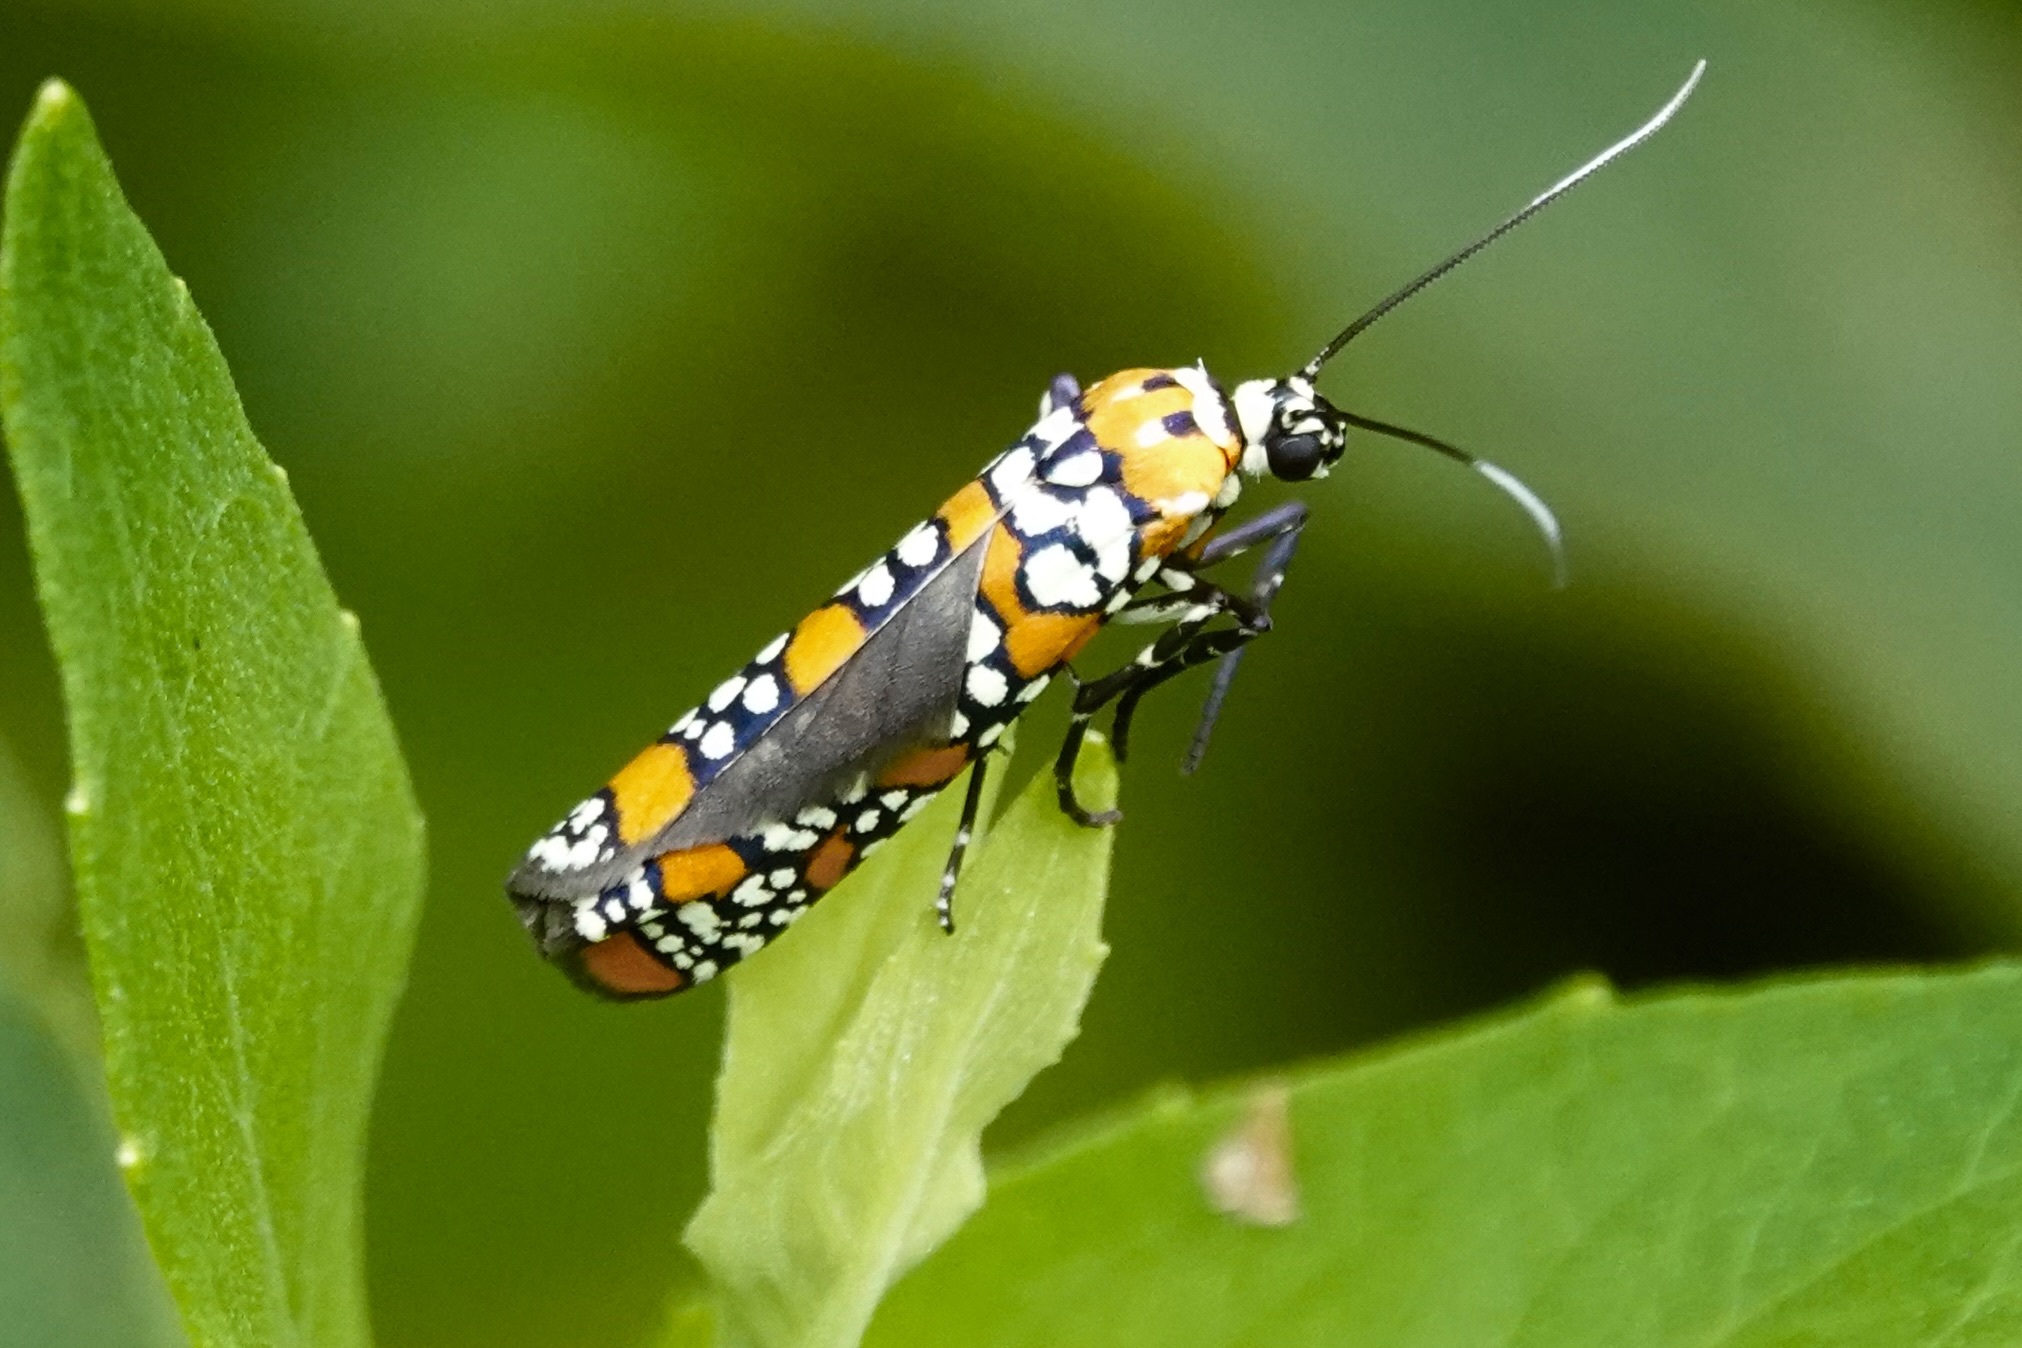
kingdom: Animalia
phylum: Arthropoda
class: Insecta
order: Lepidoptera
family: Attevidae
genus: Atteva
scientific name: Atteva punctella
